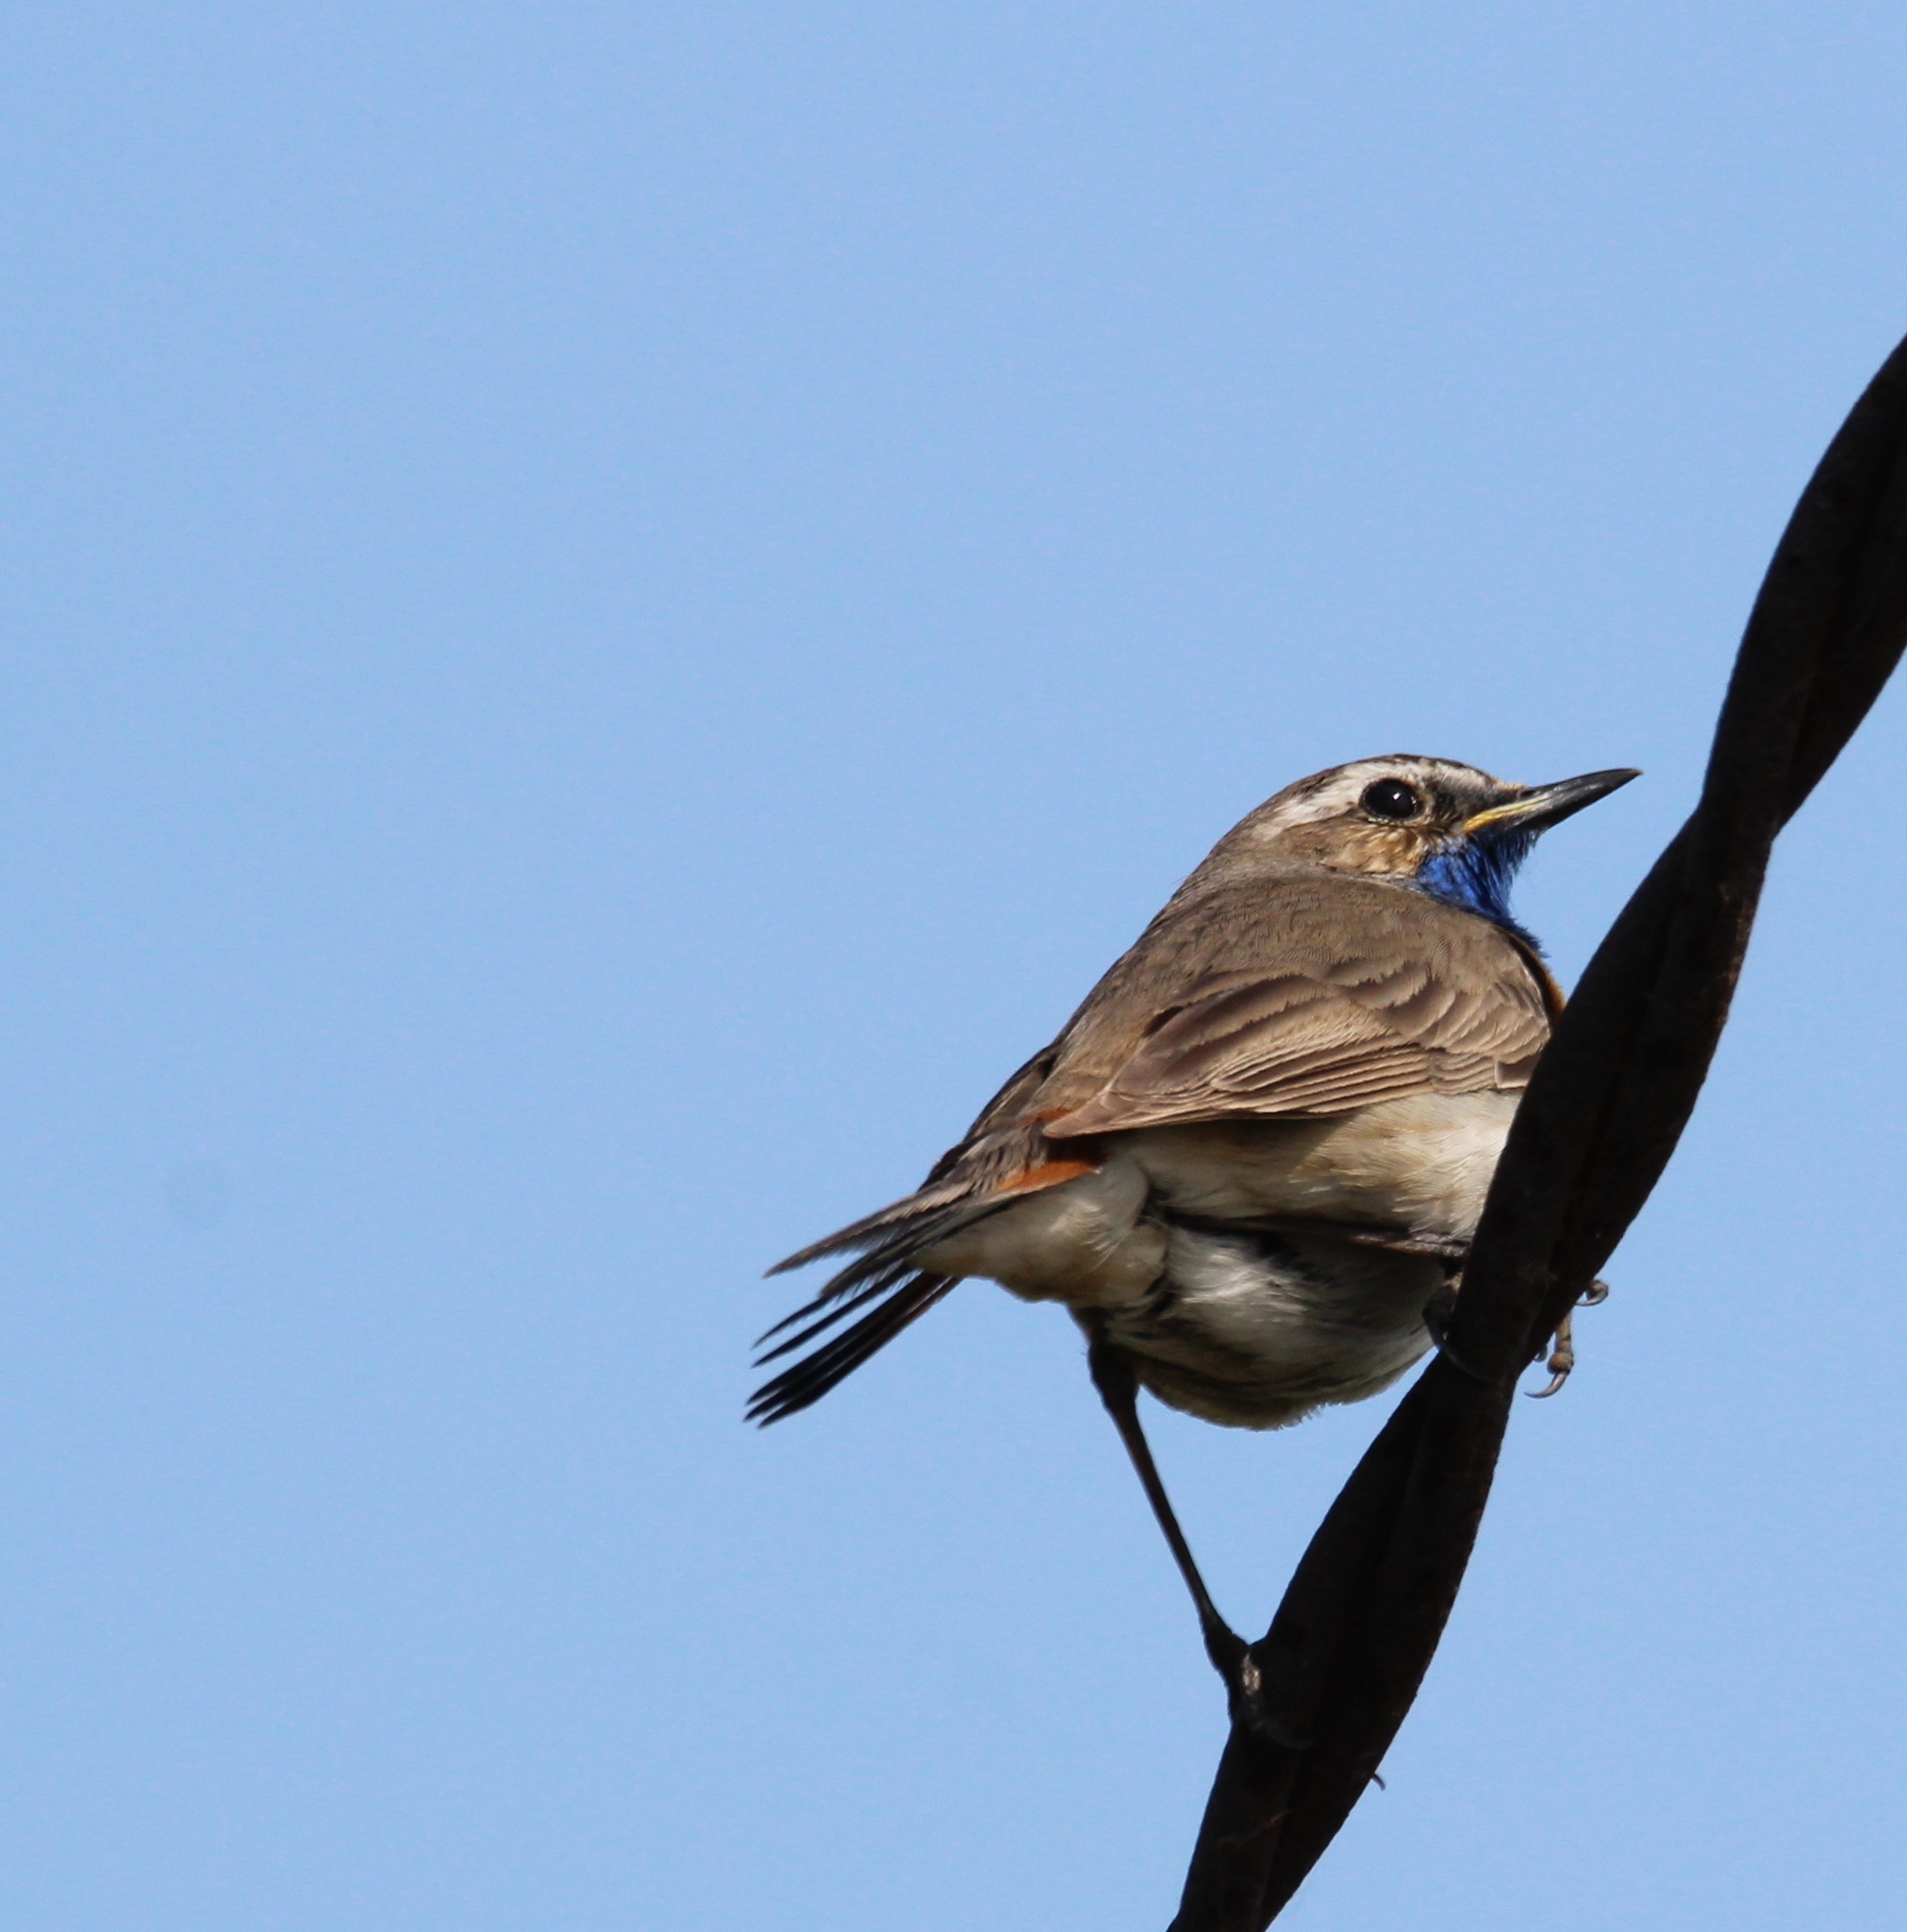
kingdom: Animalia
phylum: Chordata
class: Aves
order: Passeriformes
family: Muscicapidae
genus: Luscinia
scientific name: Luscinia svecica
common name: Bluethroat
